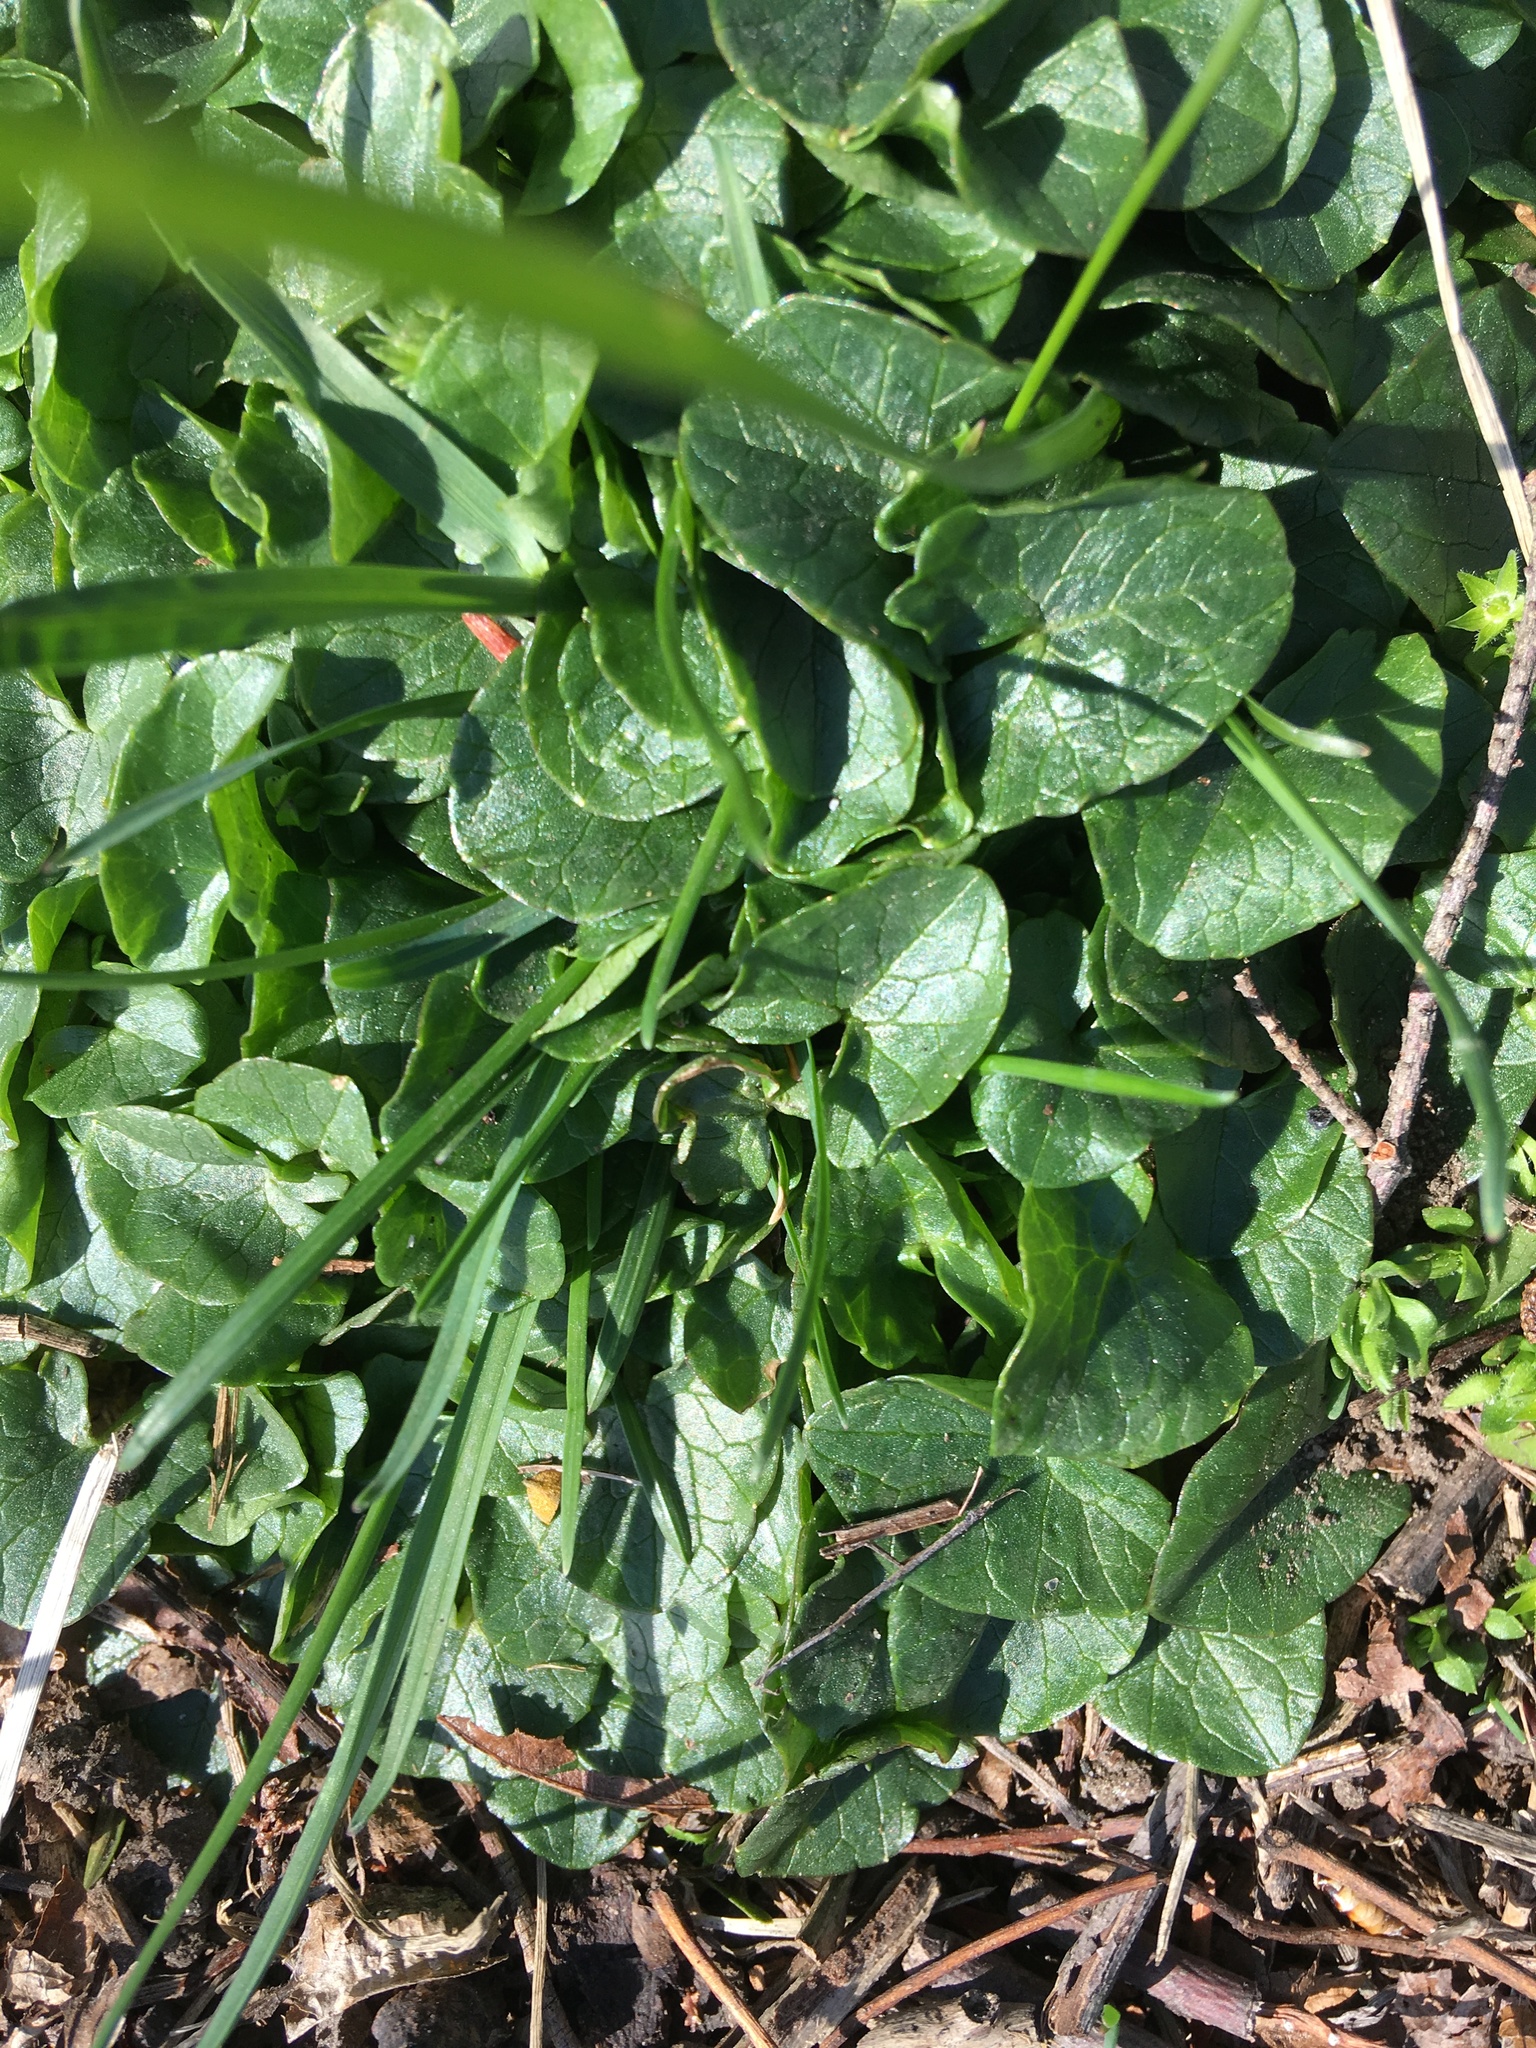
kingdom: Plantae
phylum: Tracheophyta
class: Magnoliopsida
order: Ranunculales
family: Ranunculaceae
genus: Ficaria
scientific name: Ficaria verna
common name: Lesser celandine
